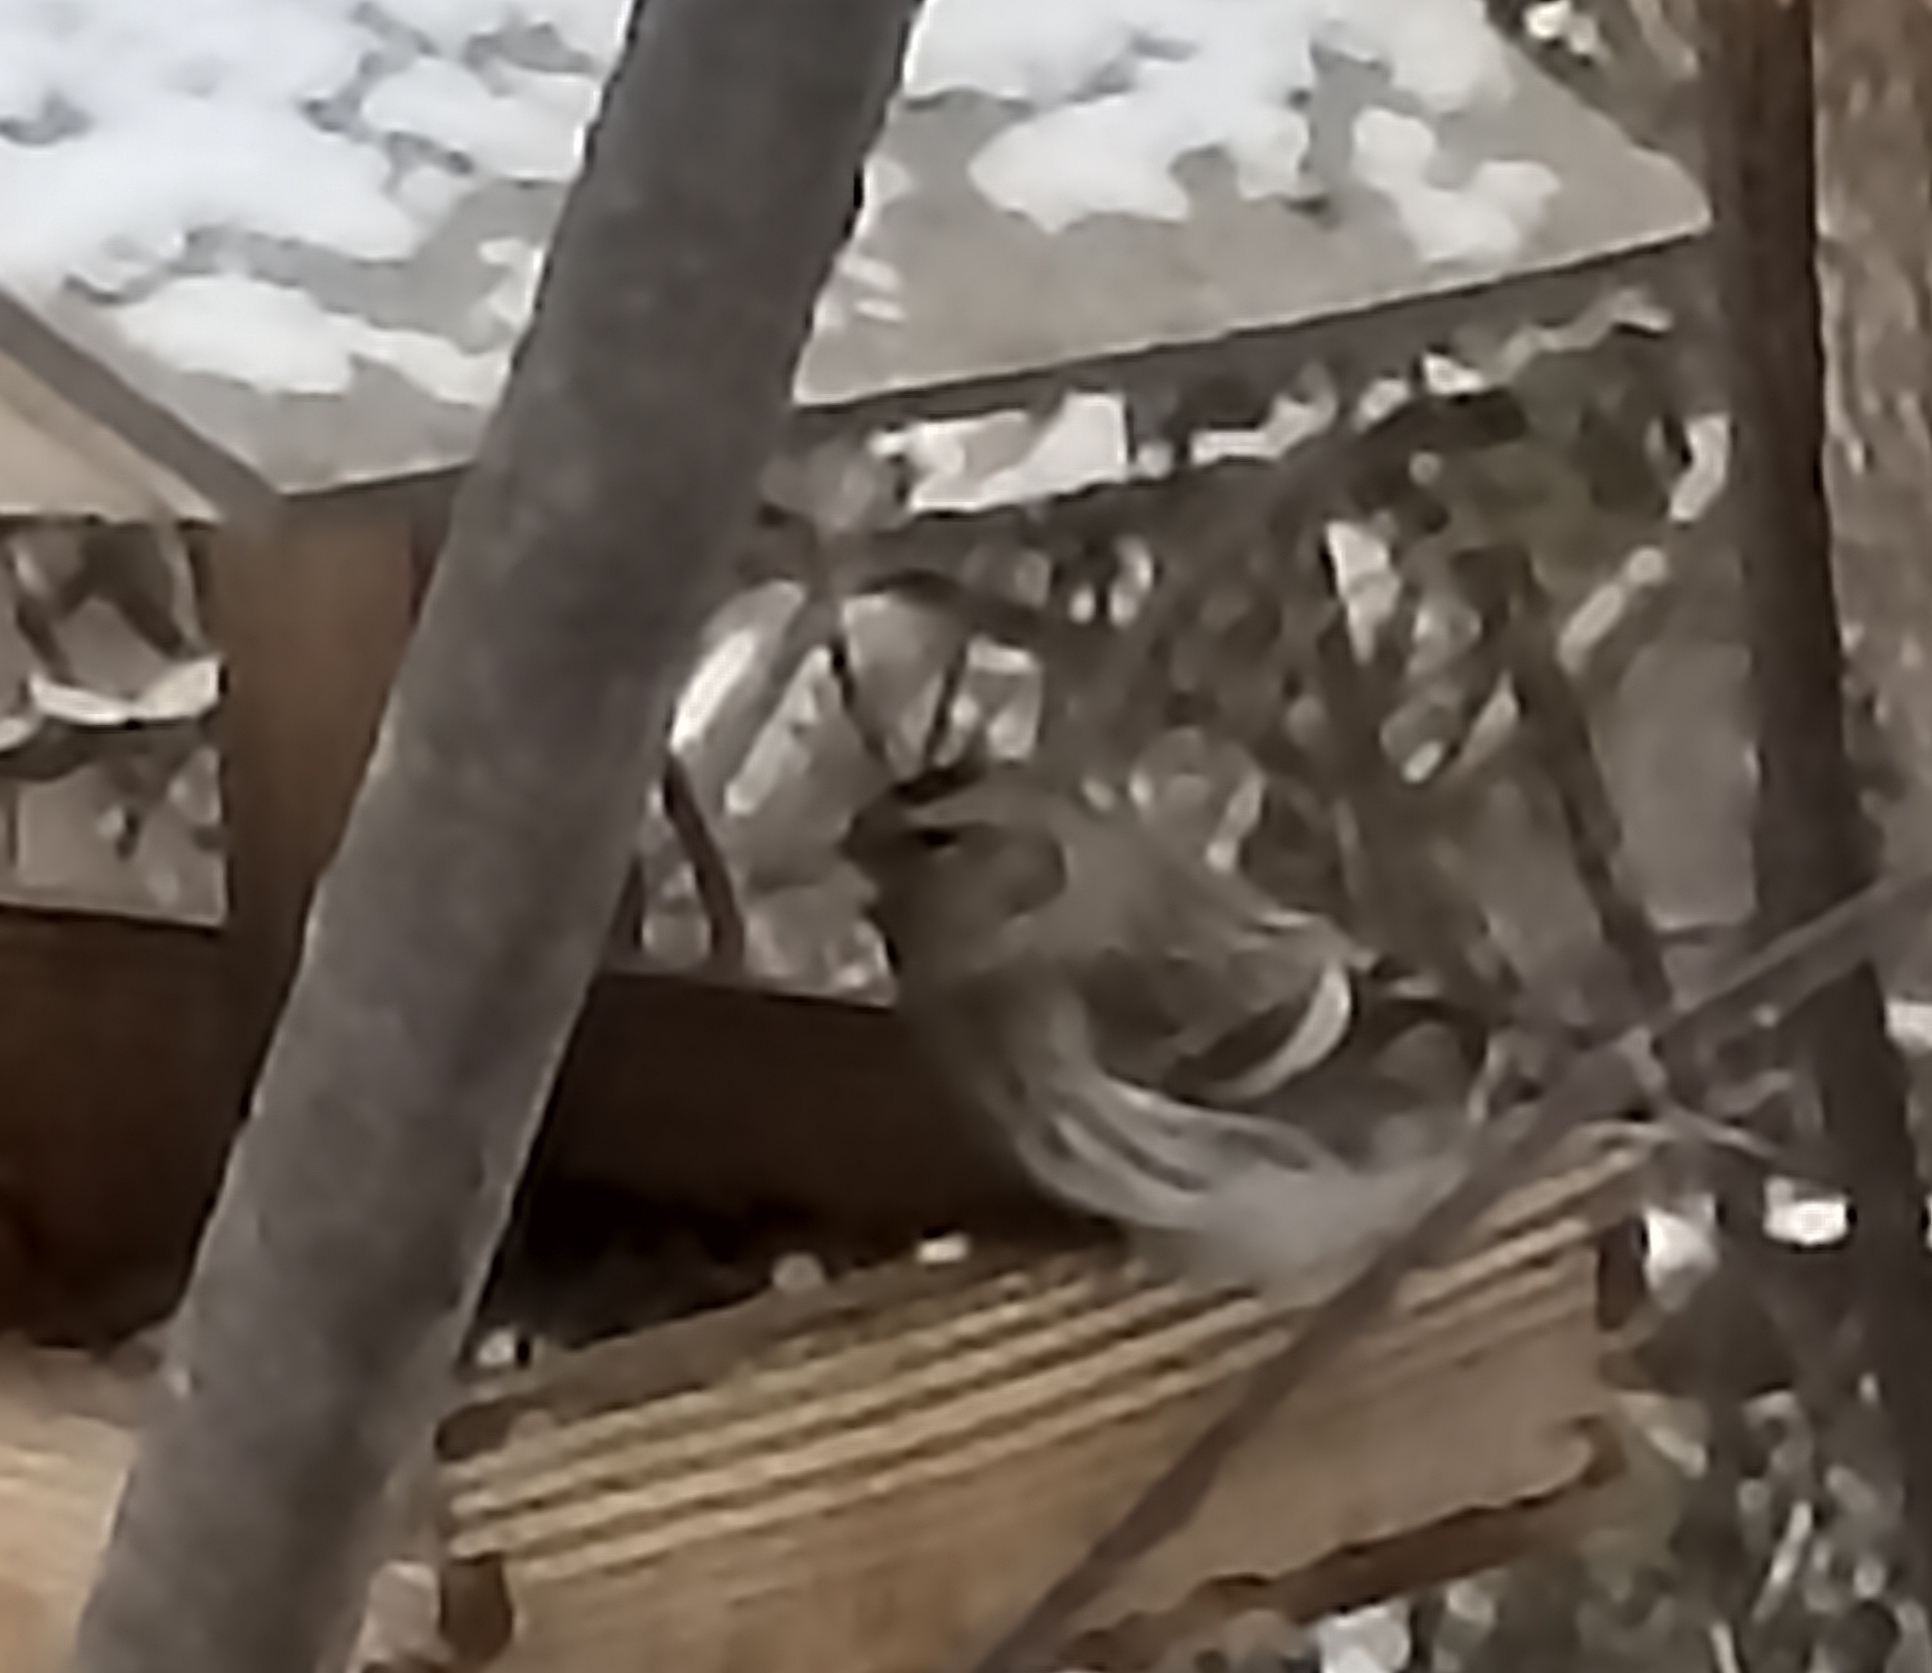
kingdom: Animalia
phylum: Chordata
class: Aves
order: Passeriformes
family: Fringillidae
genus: Acanthis
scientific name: Acanthis flammea
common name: Common redpoll
